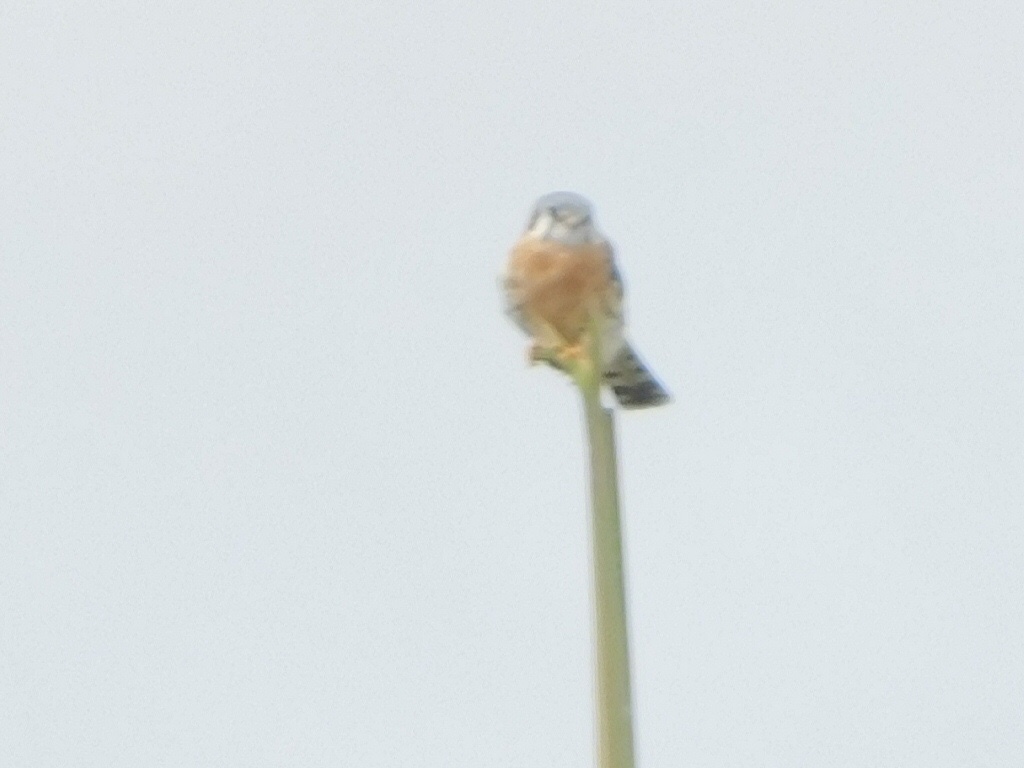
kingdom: Animalia
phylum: Chordata
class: Aves
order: Falconiformes
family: Falconidae
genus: Falco
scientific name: Falco sparverius
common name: American kestrel
